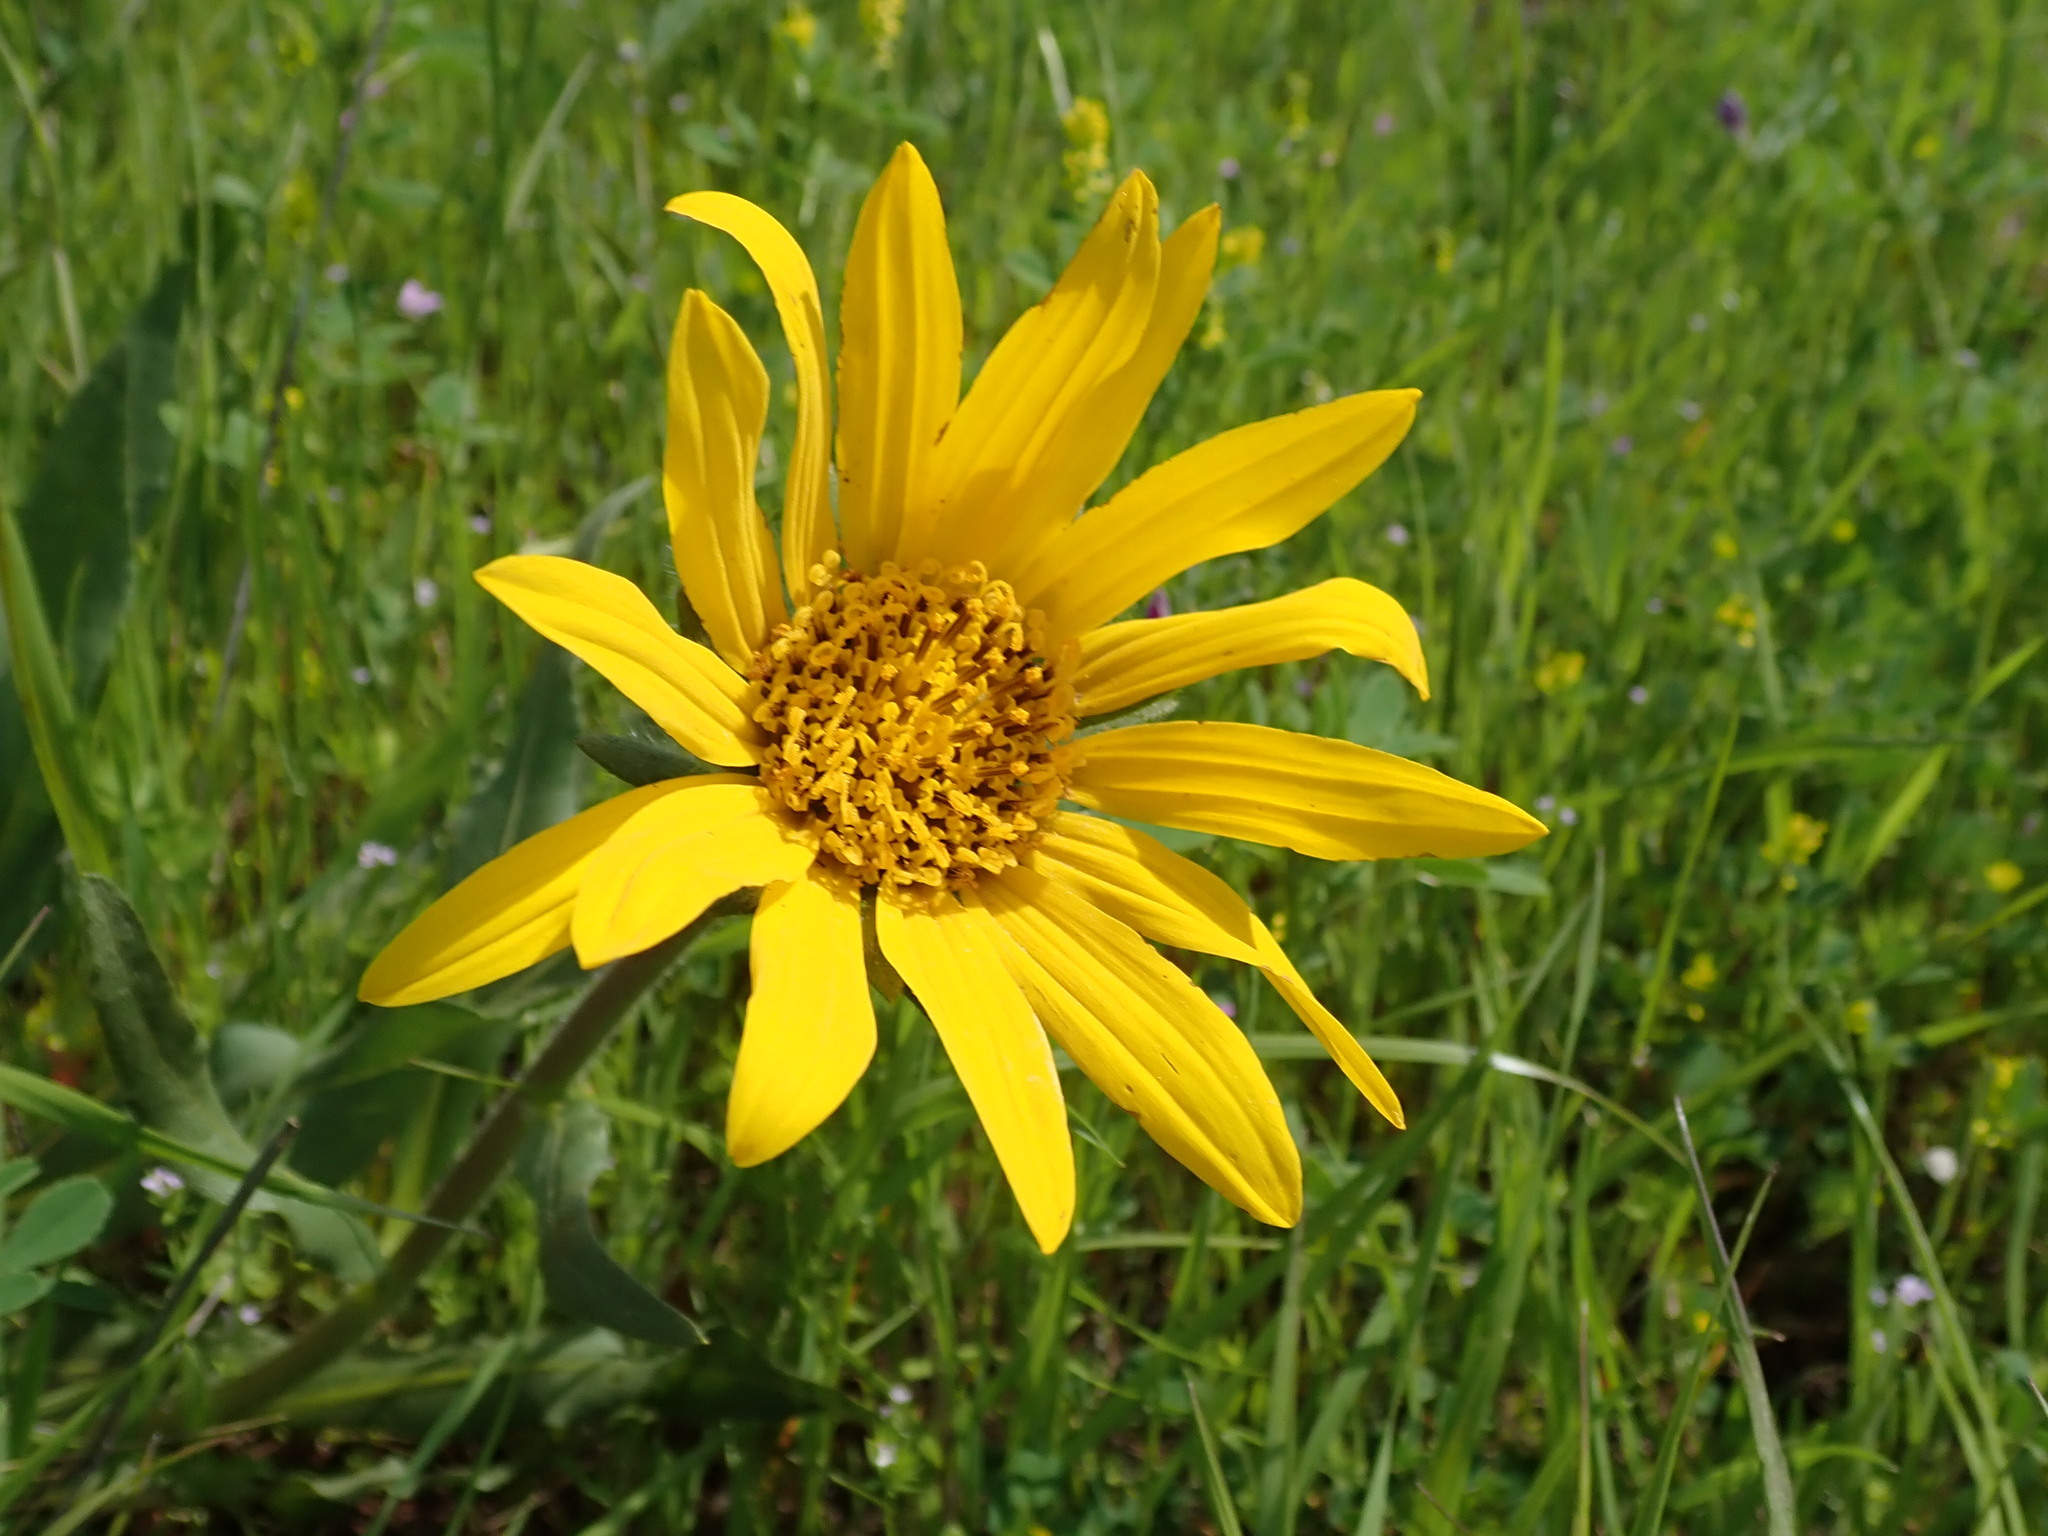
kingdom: Plantae
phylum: Tracheophyta
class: Magnoliopsida
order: Asterales
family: Asteraceae
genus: Wyethia
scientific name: Wyethia angustifolia
